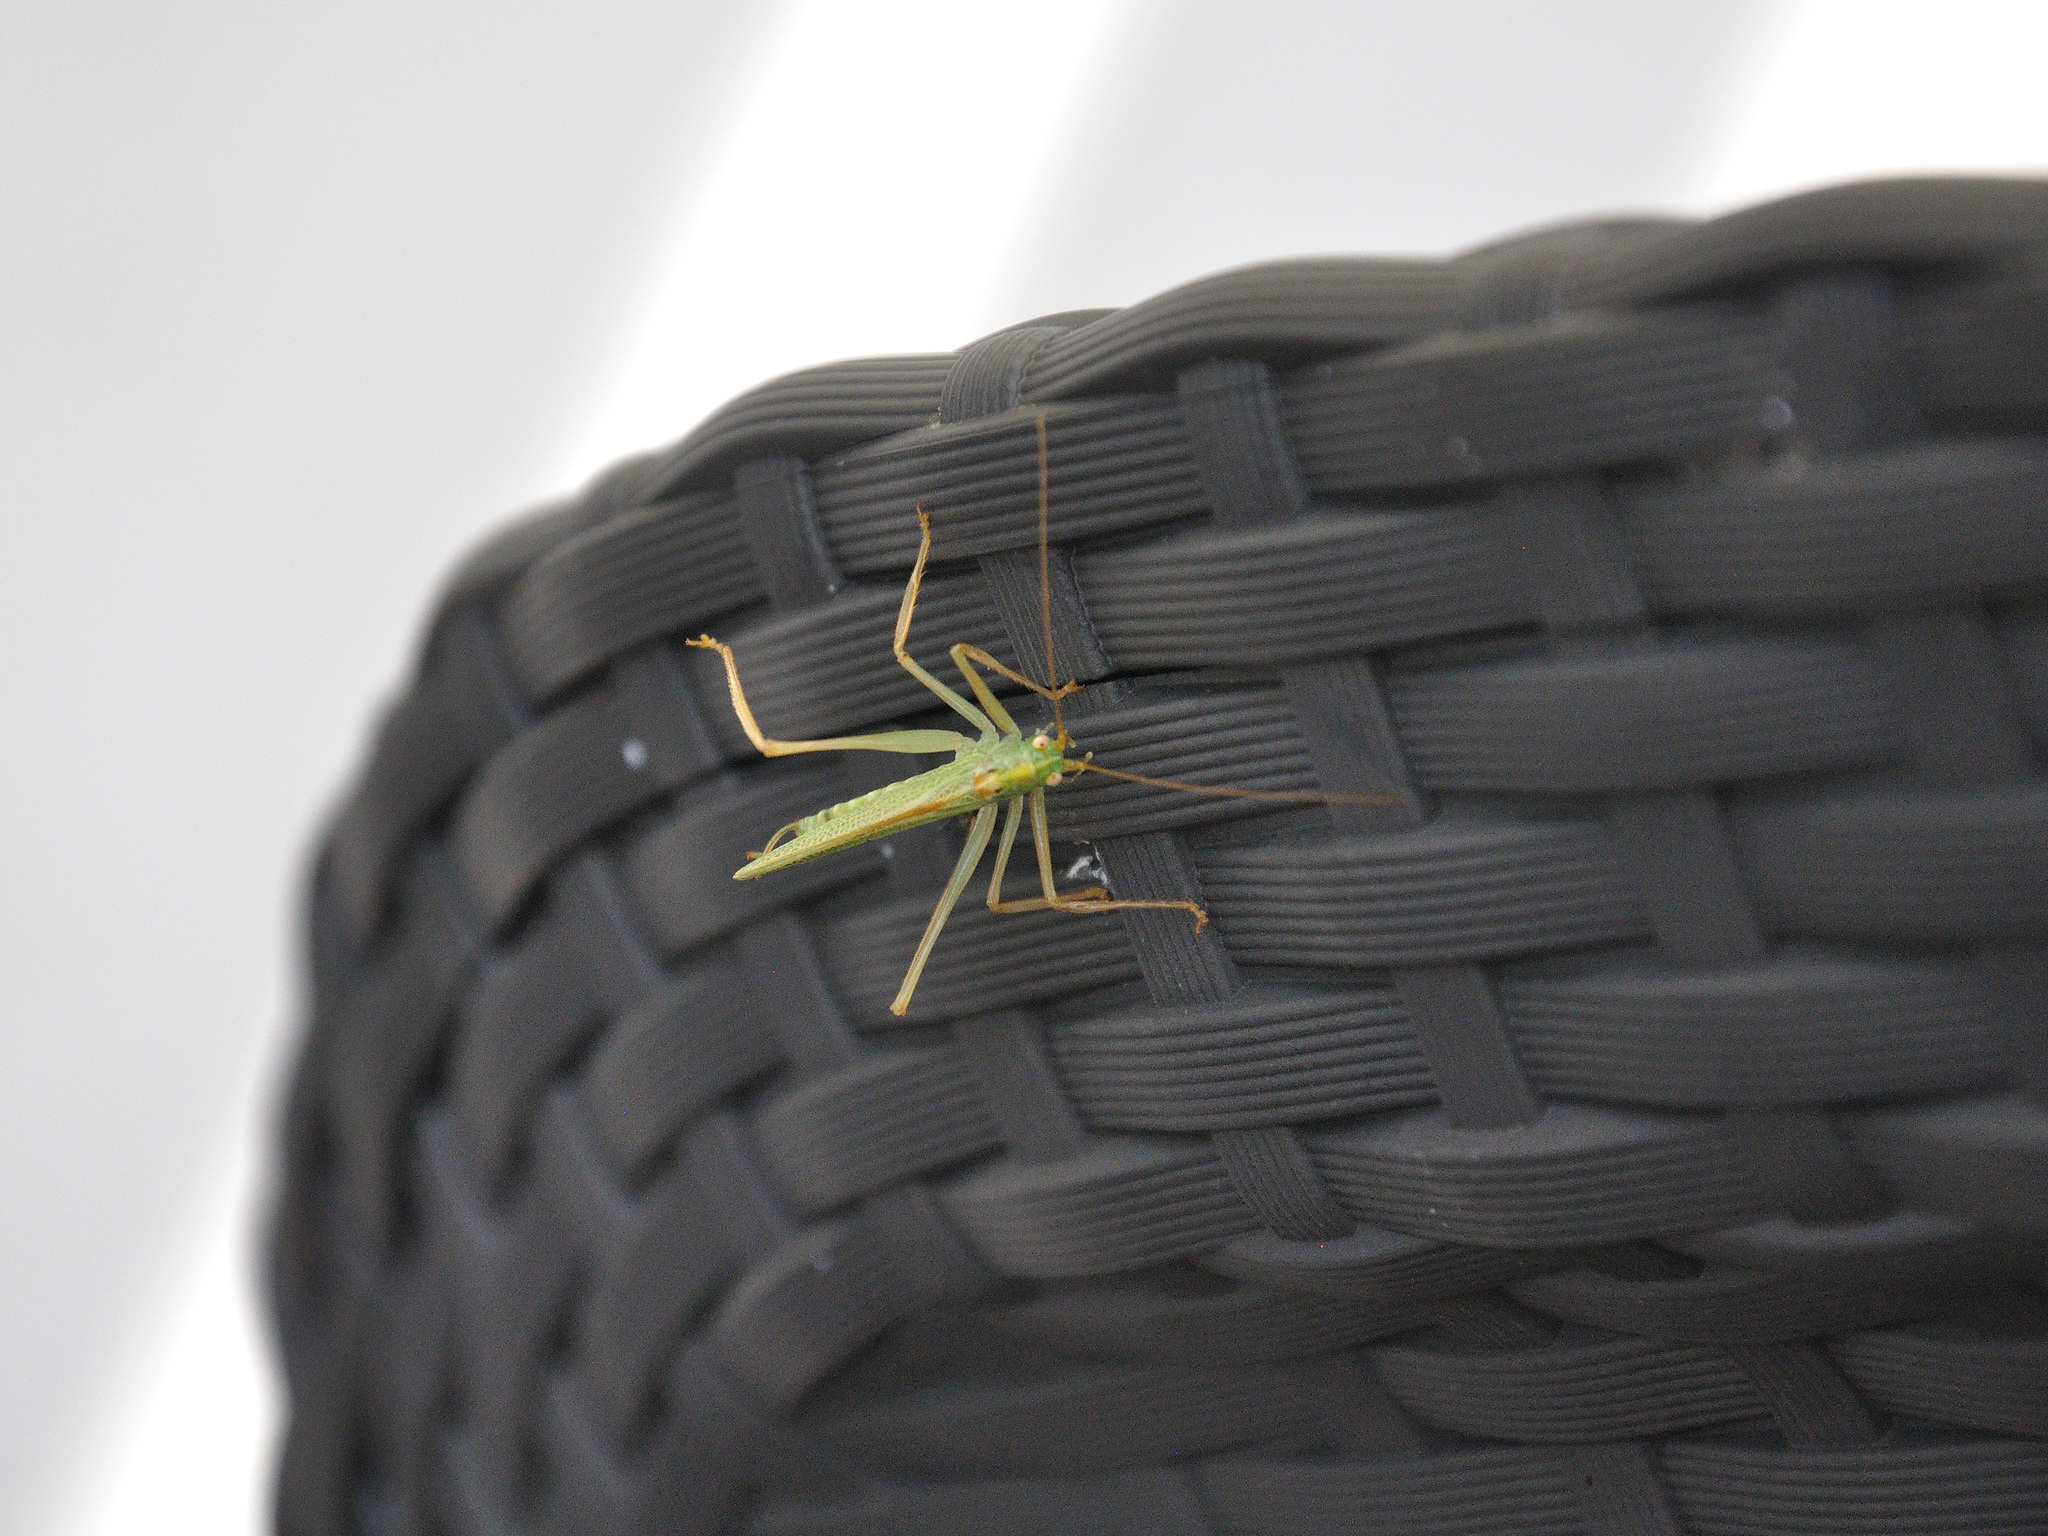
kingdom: Animalia
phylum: Arthropoda
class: Insecta
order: Orthoptera
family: Tettigoniidae
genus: Meconema
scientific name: Meconema thalassinum
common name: Oak bush-cricket
